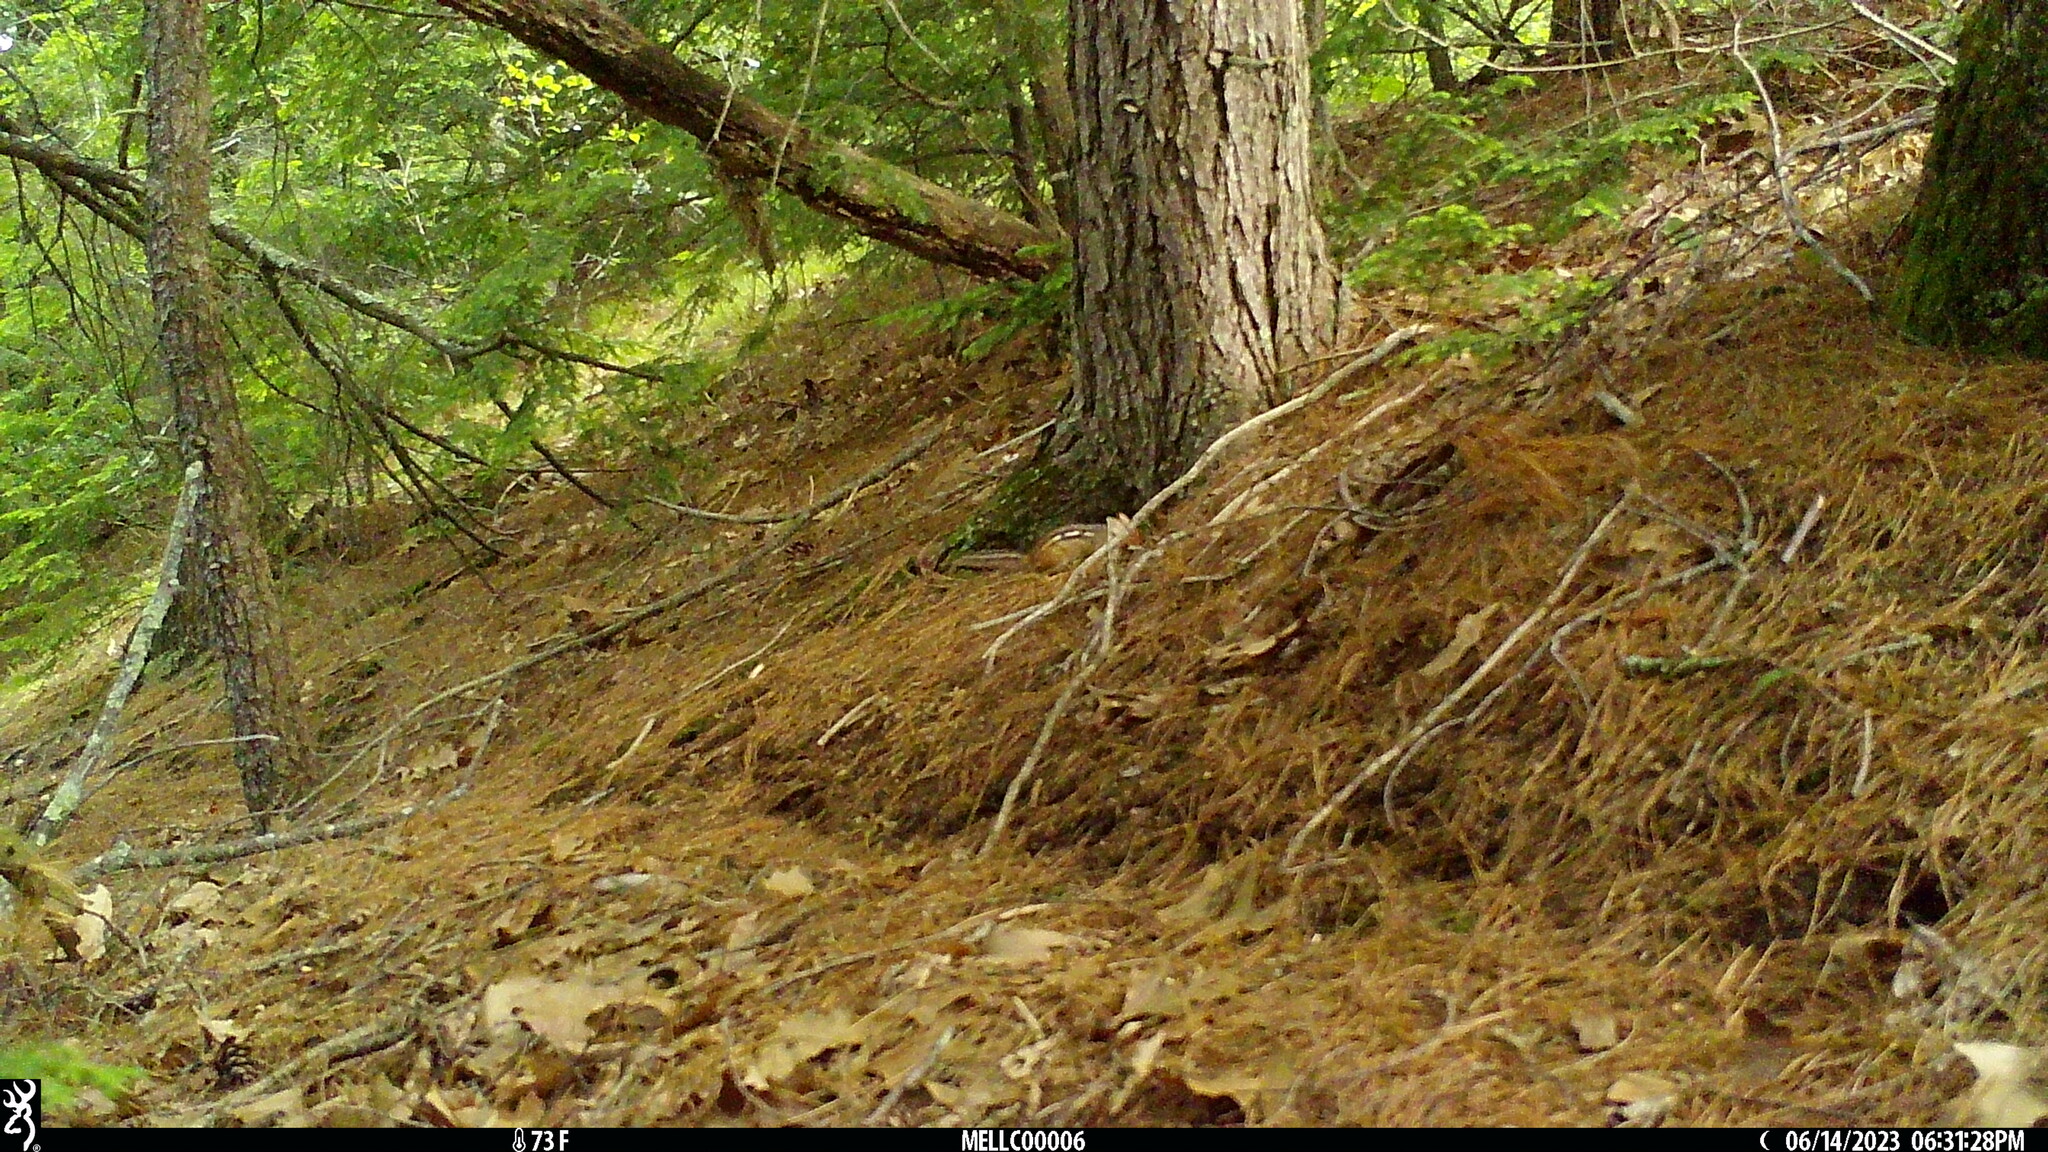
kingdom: Animalia
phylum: Chordata
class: Mammalia
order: Rodentia
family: Sciuridae
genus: Tamias
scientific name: Tamias striatus
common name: Eastern chipmunk
